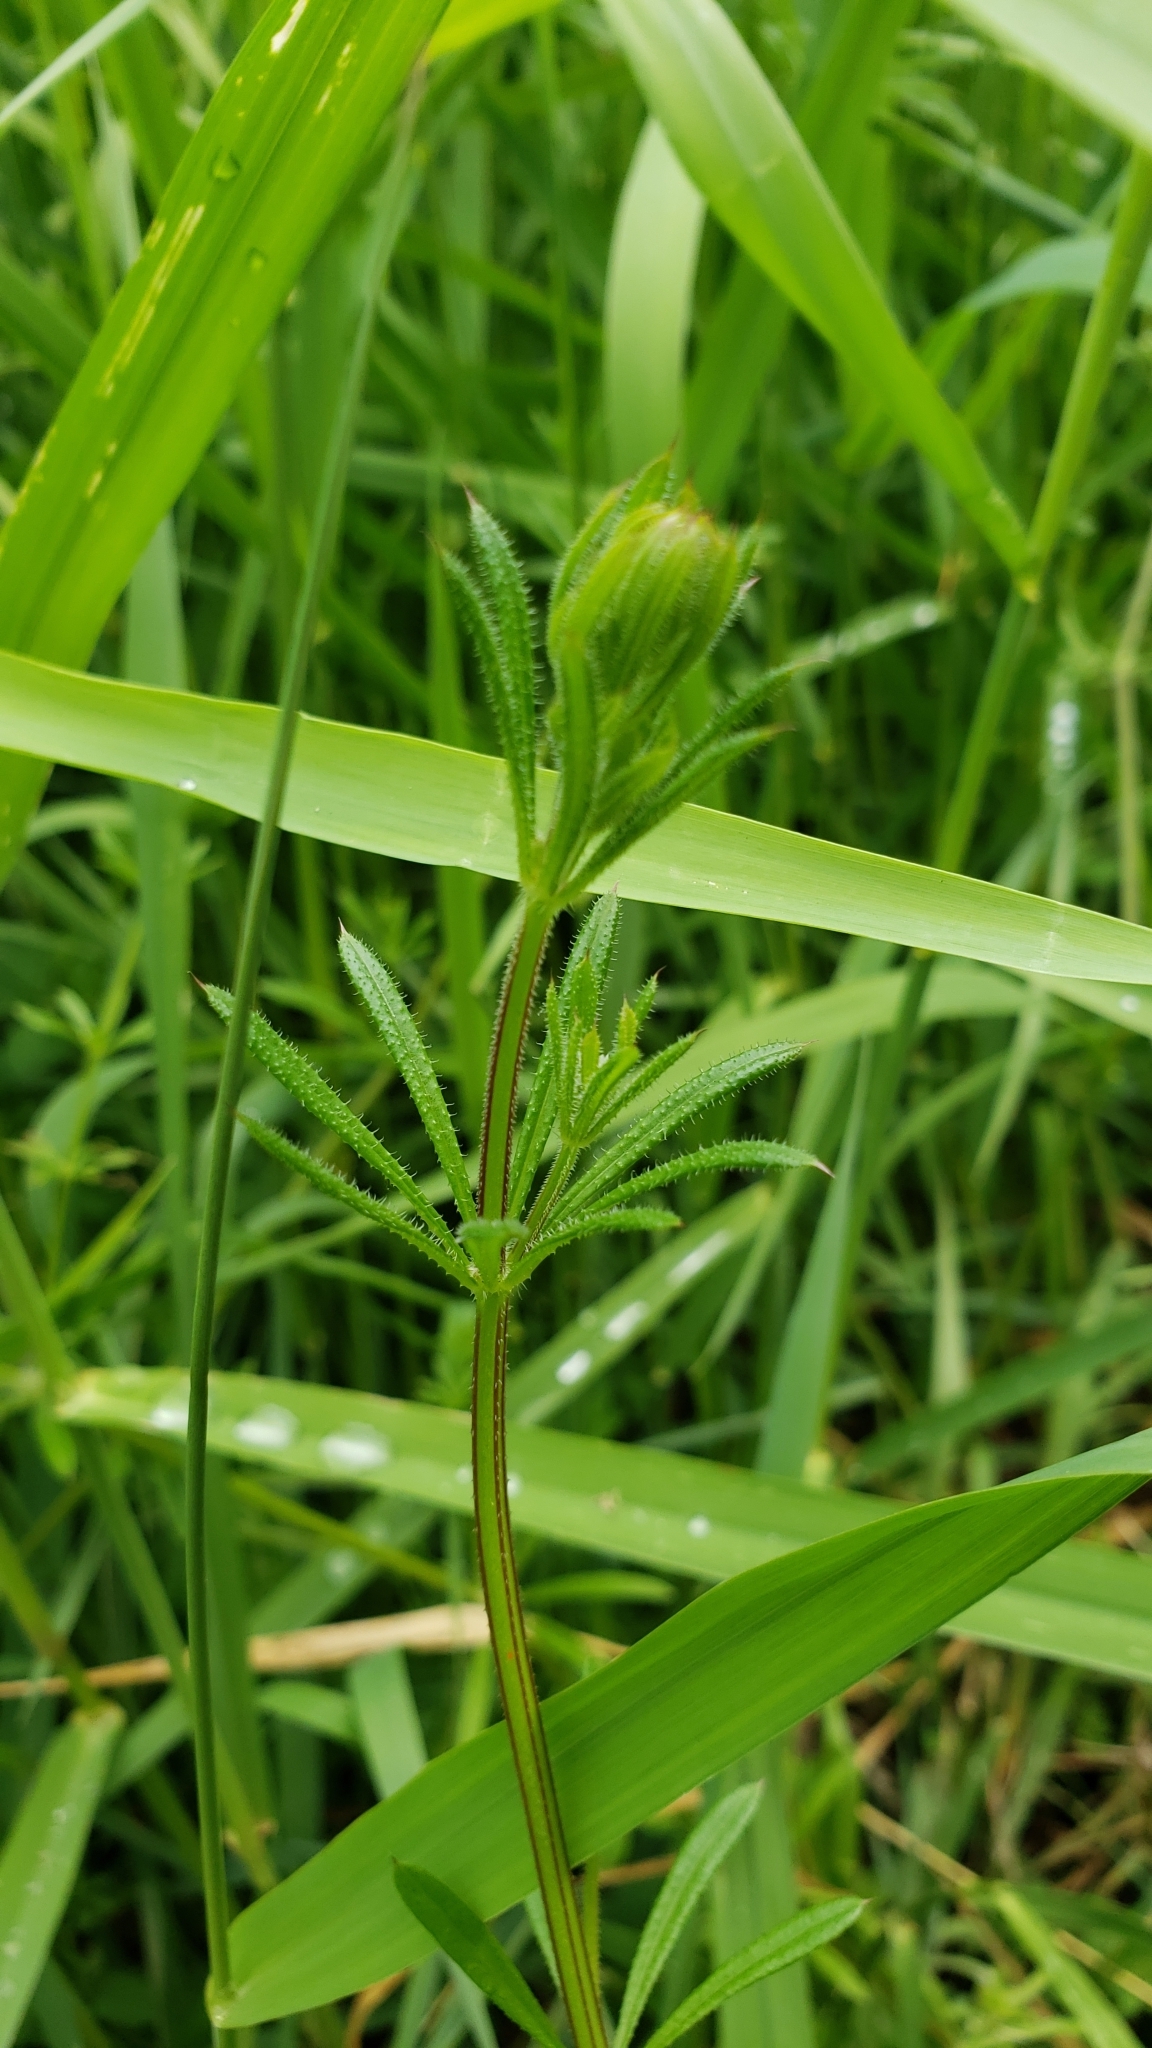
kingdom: Plantae
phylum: Tracheophyta
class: Magnoliopsida
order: Gentianales
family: Rubiaceae
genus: Galium
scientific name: Galium aparine
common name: Cleavers
